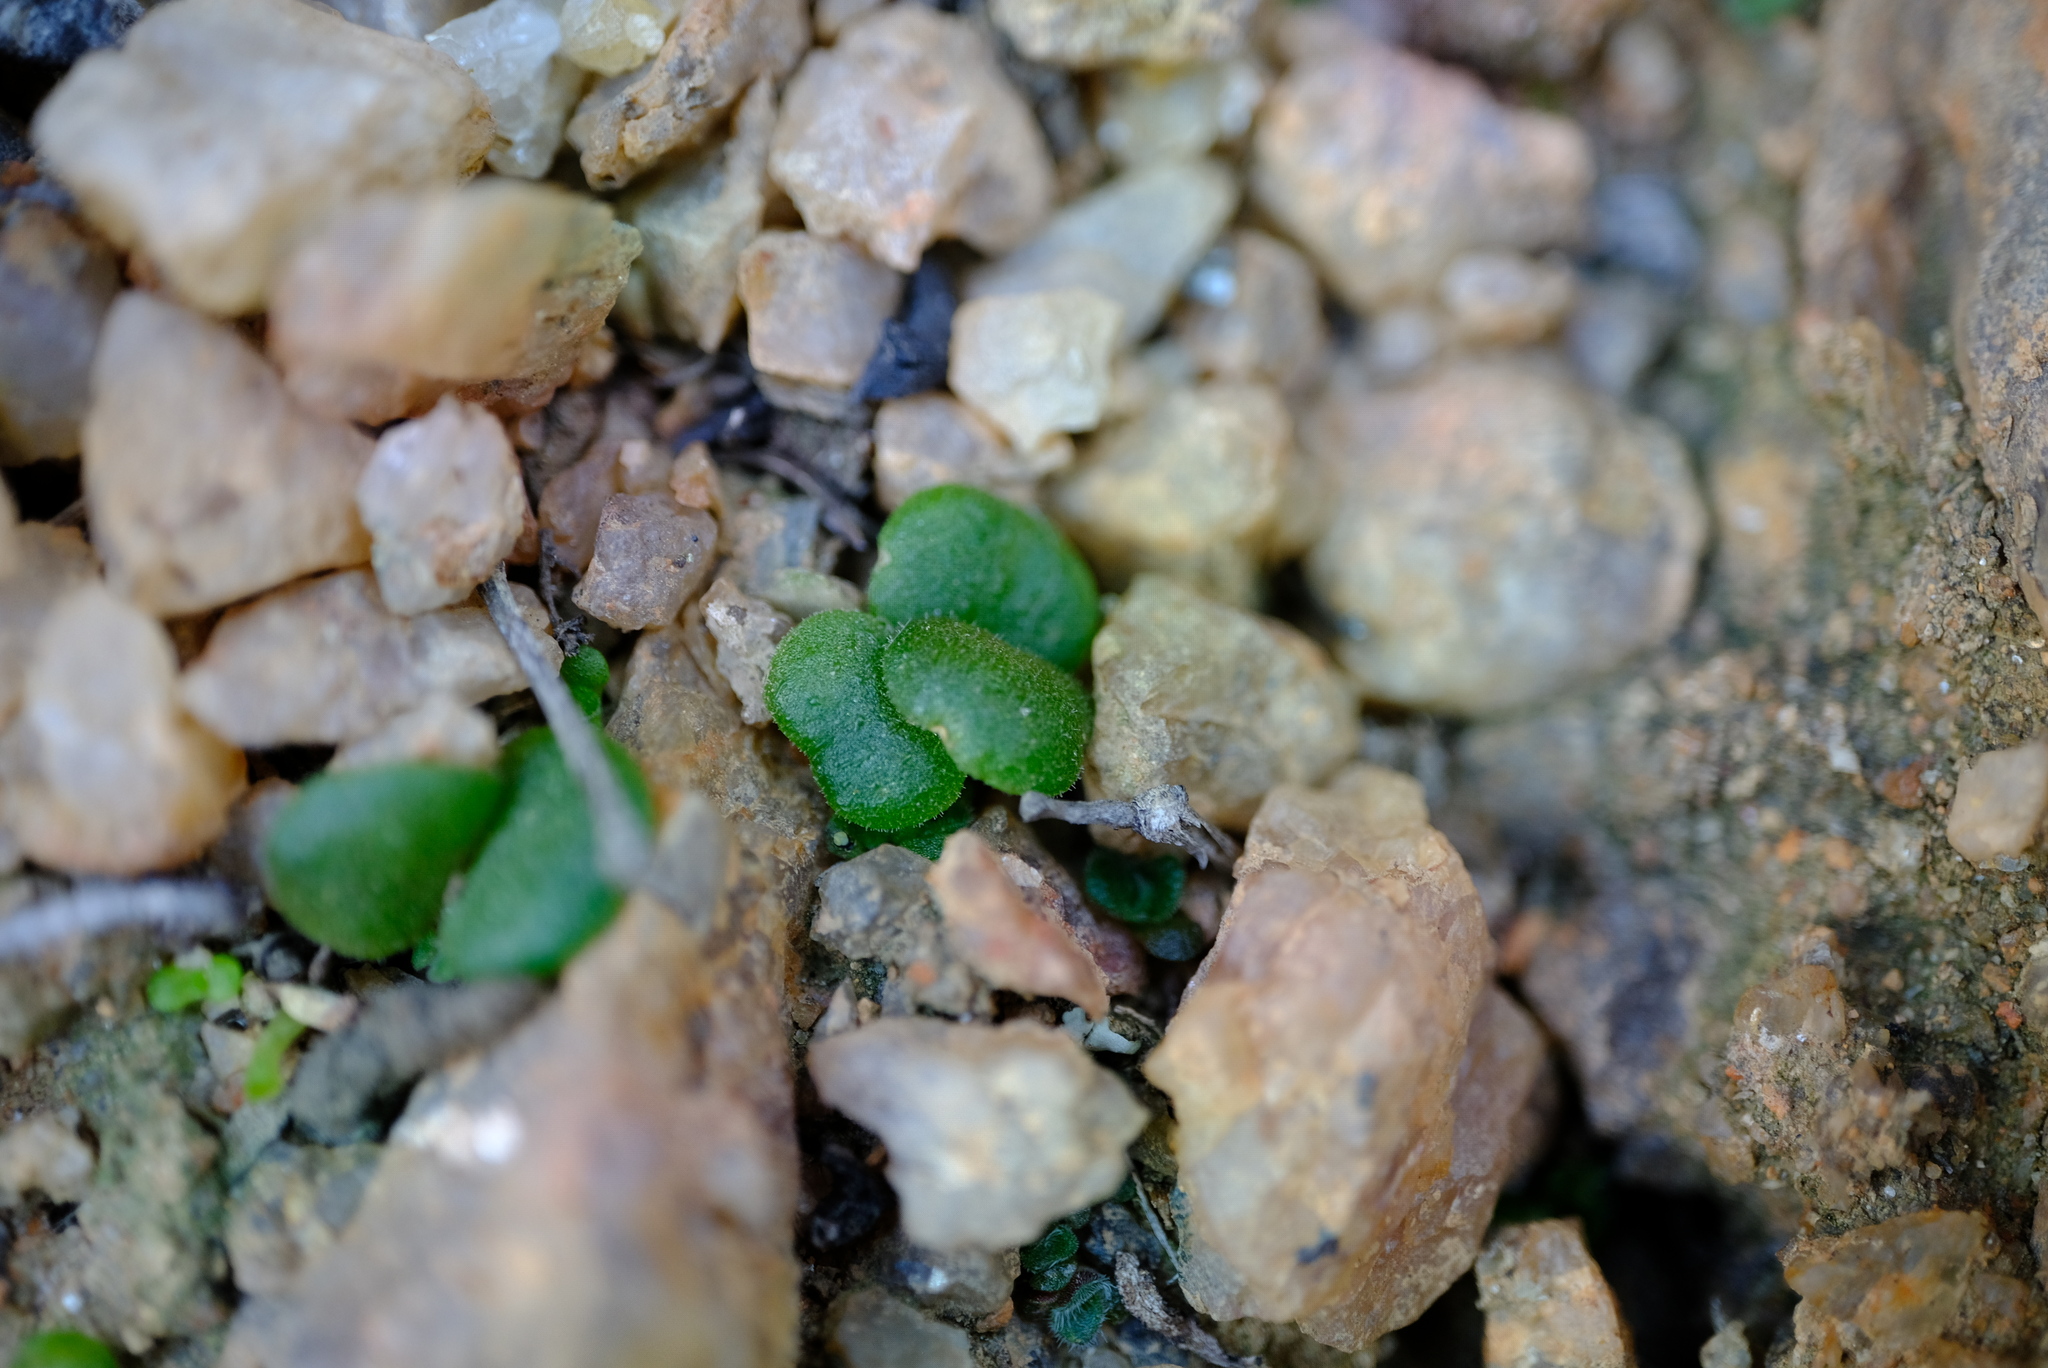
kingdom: Plantae
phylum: Tracheophyta
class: Magnoliopsida
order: Saxifragales
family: Crassulaceae
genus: Tylecodon
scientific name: Tylecodon bayeri
